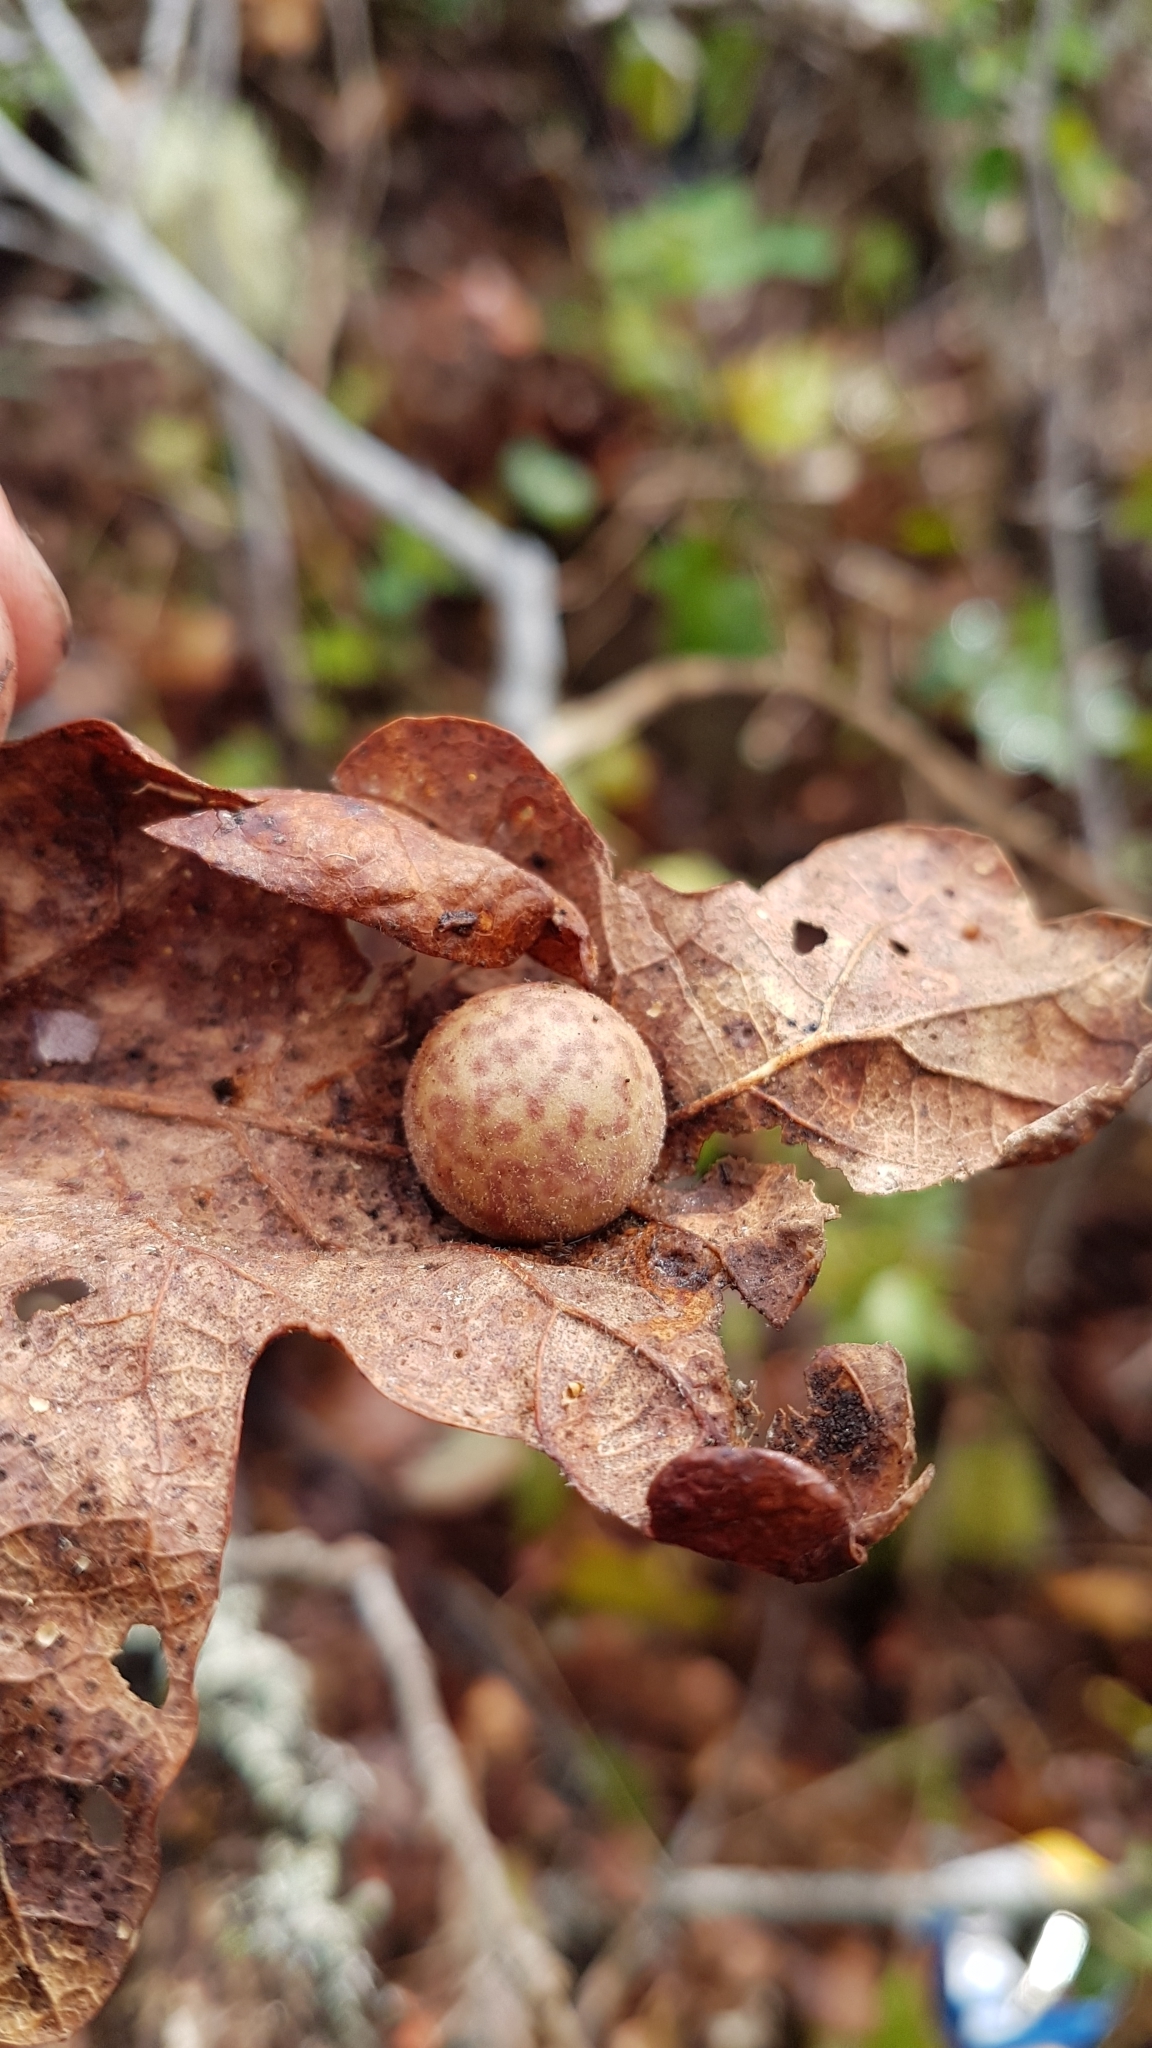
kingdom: Animalia
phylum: Arthropoda
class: Insecta
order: Hymenoptera
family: Cynipidae
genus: Cynips
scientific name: Cynips
